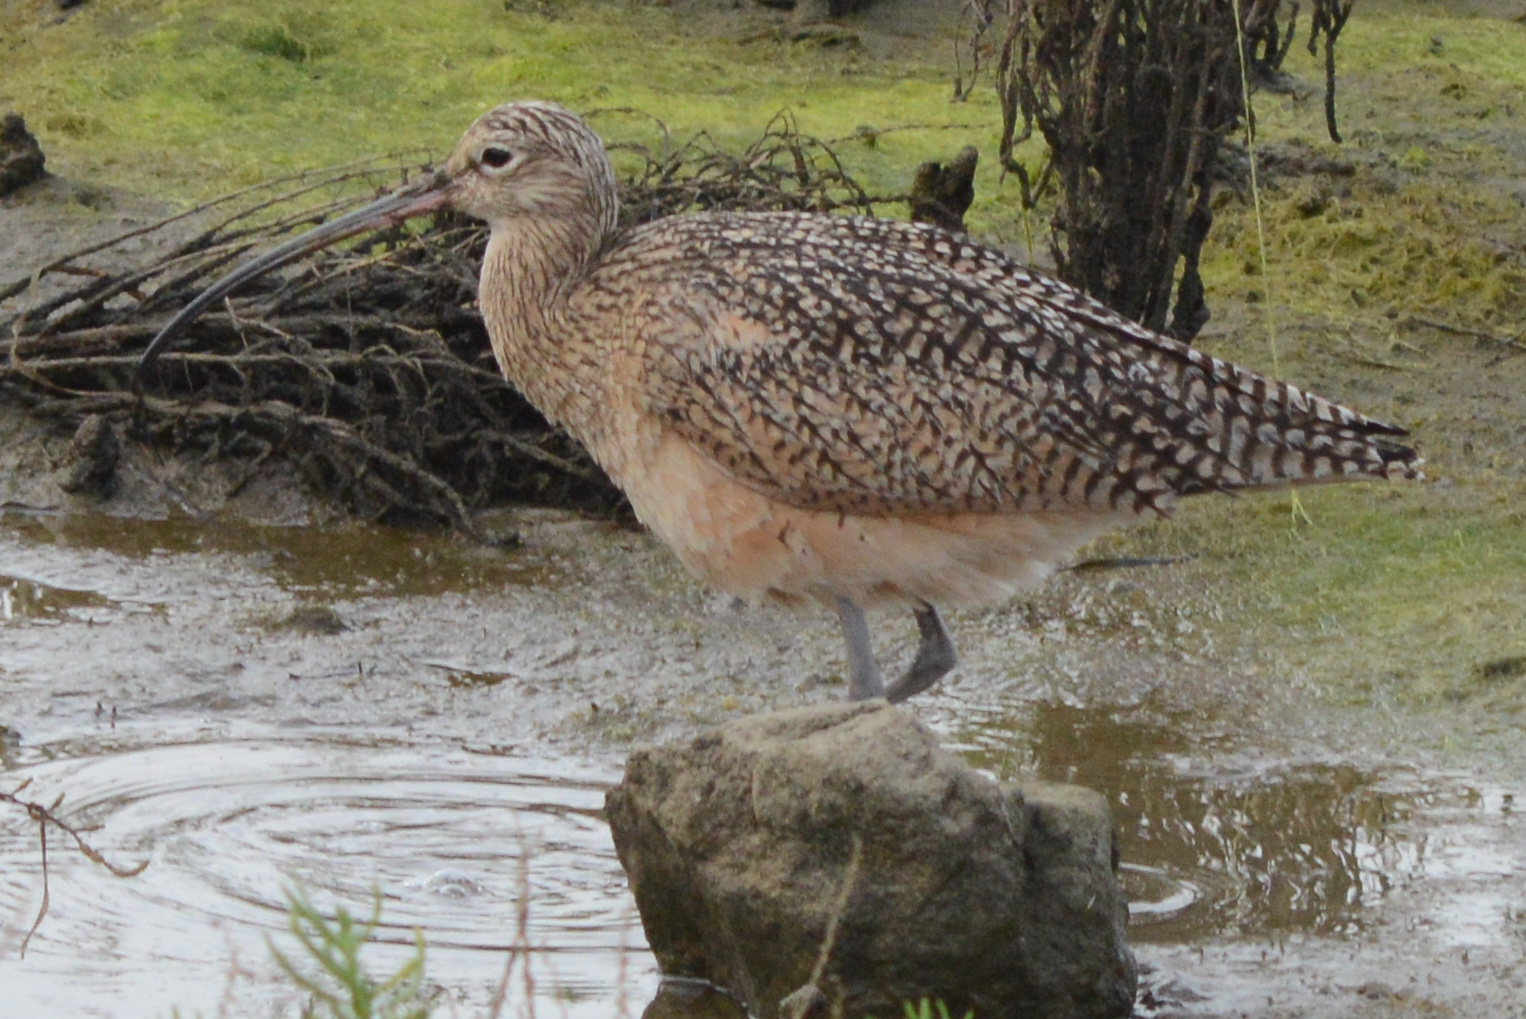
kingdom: Animalia
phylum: Chordata
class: Aves
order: Charadriiformes
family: Scolopacidae
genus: Numenius
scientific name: Numenius americanus
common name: Long-billed curlew
